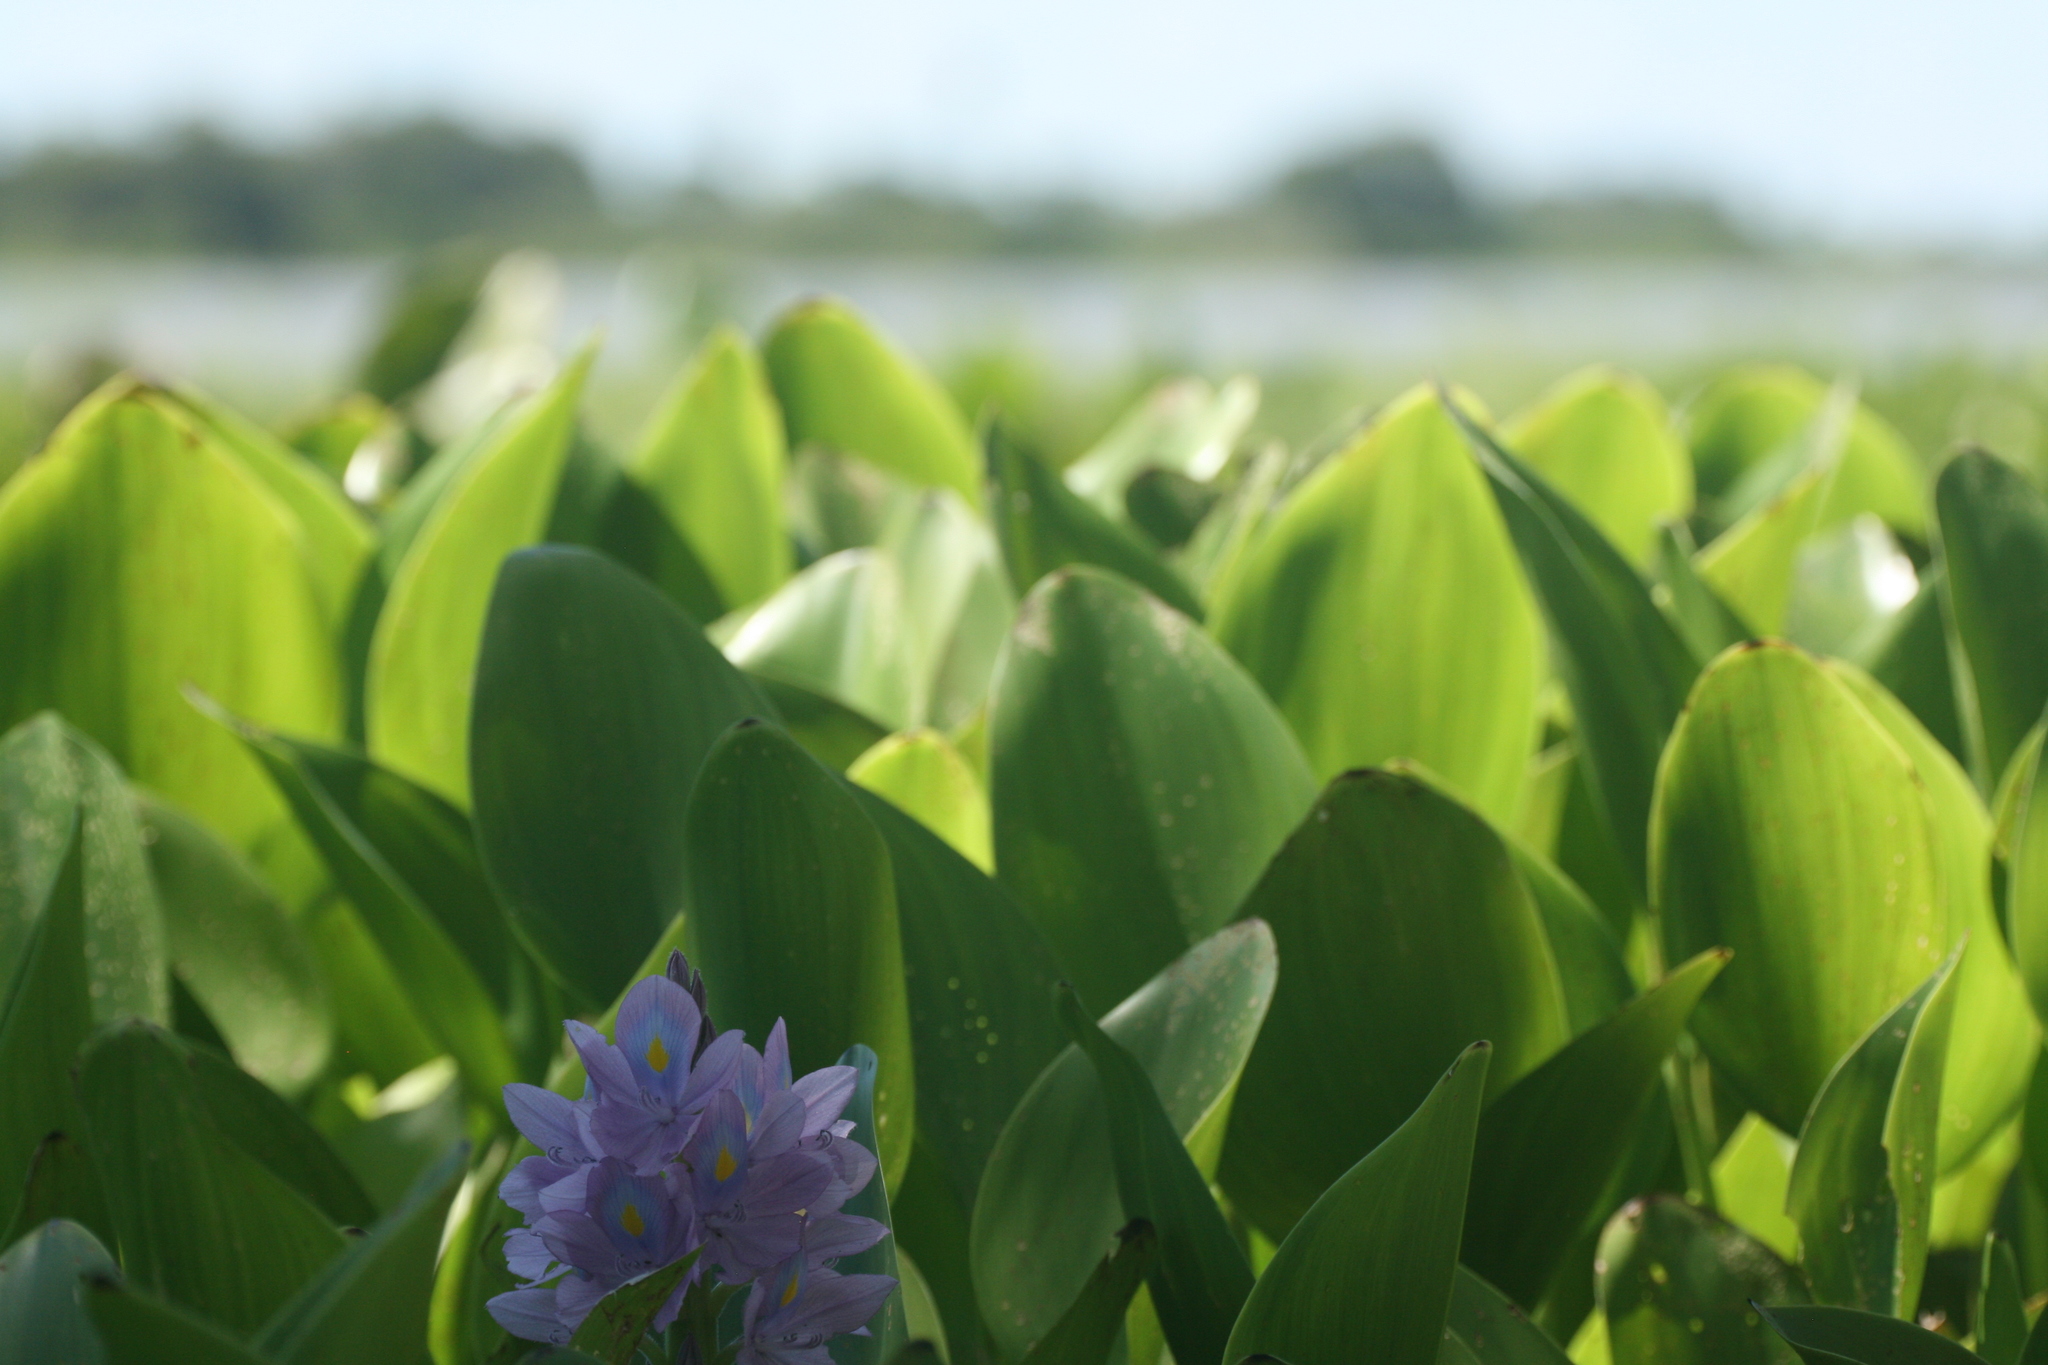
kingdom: Plantae
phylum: Tracheophyta
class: Liliopsida
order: Commelinales
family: Pontederiaceae
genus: Pontederia
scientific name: Pontederia crassipes
